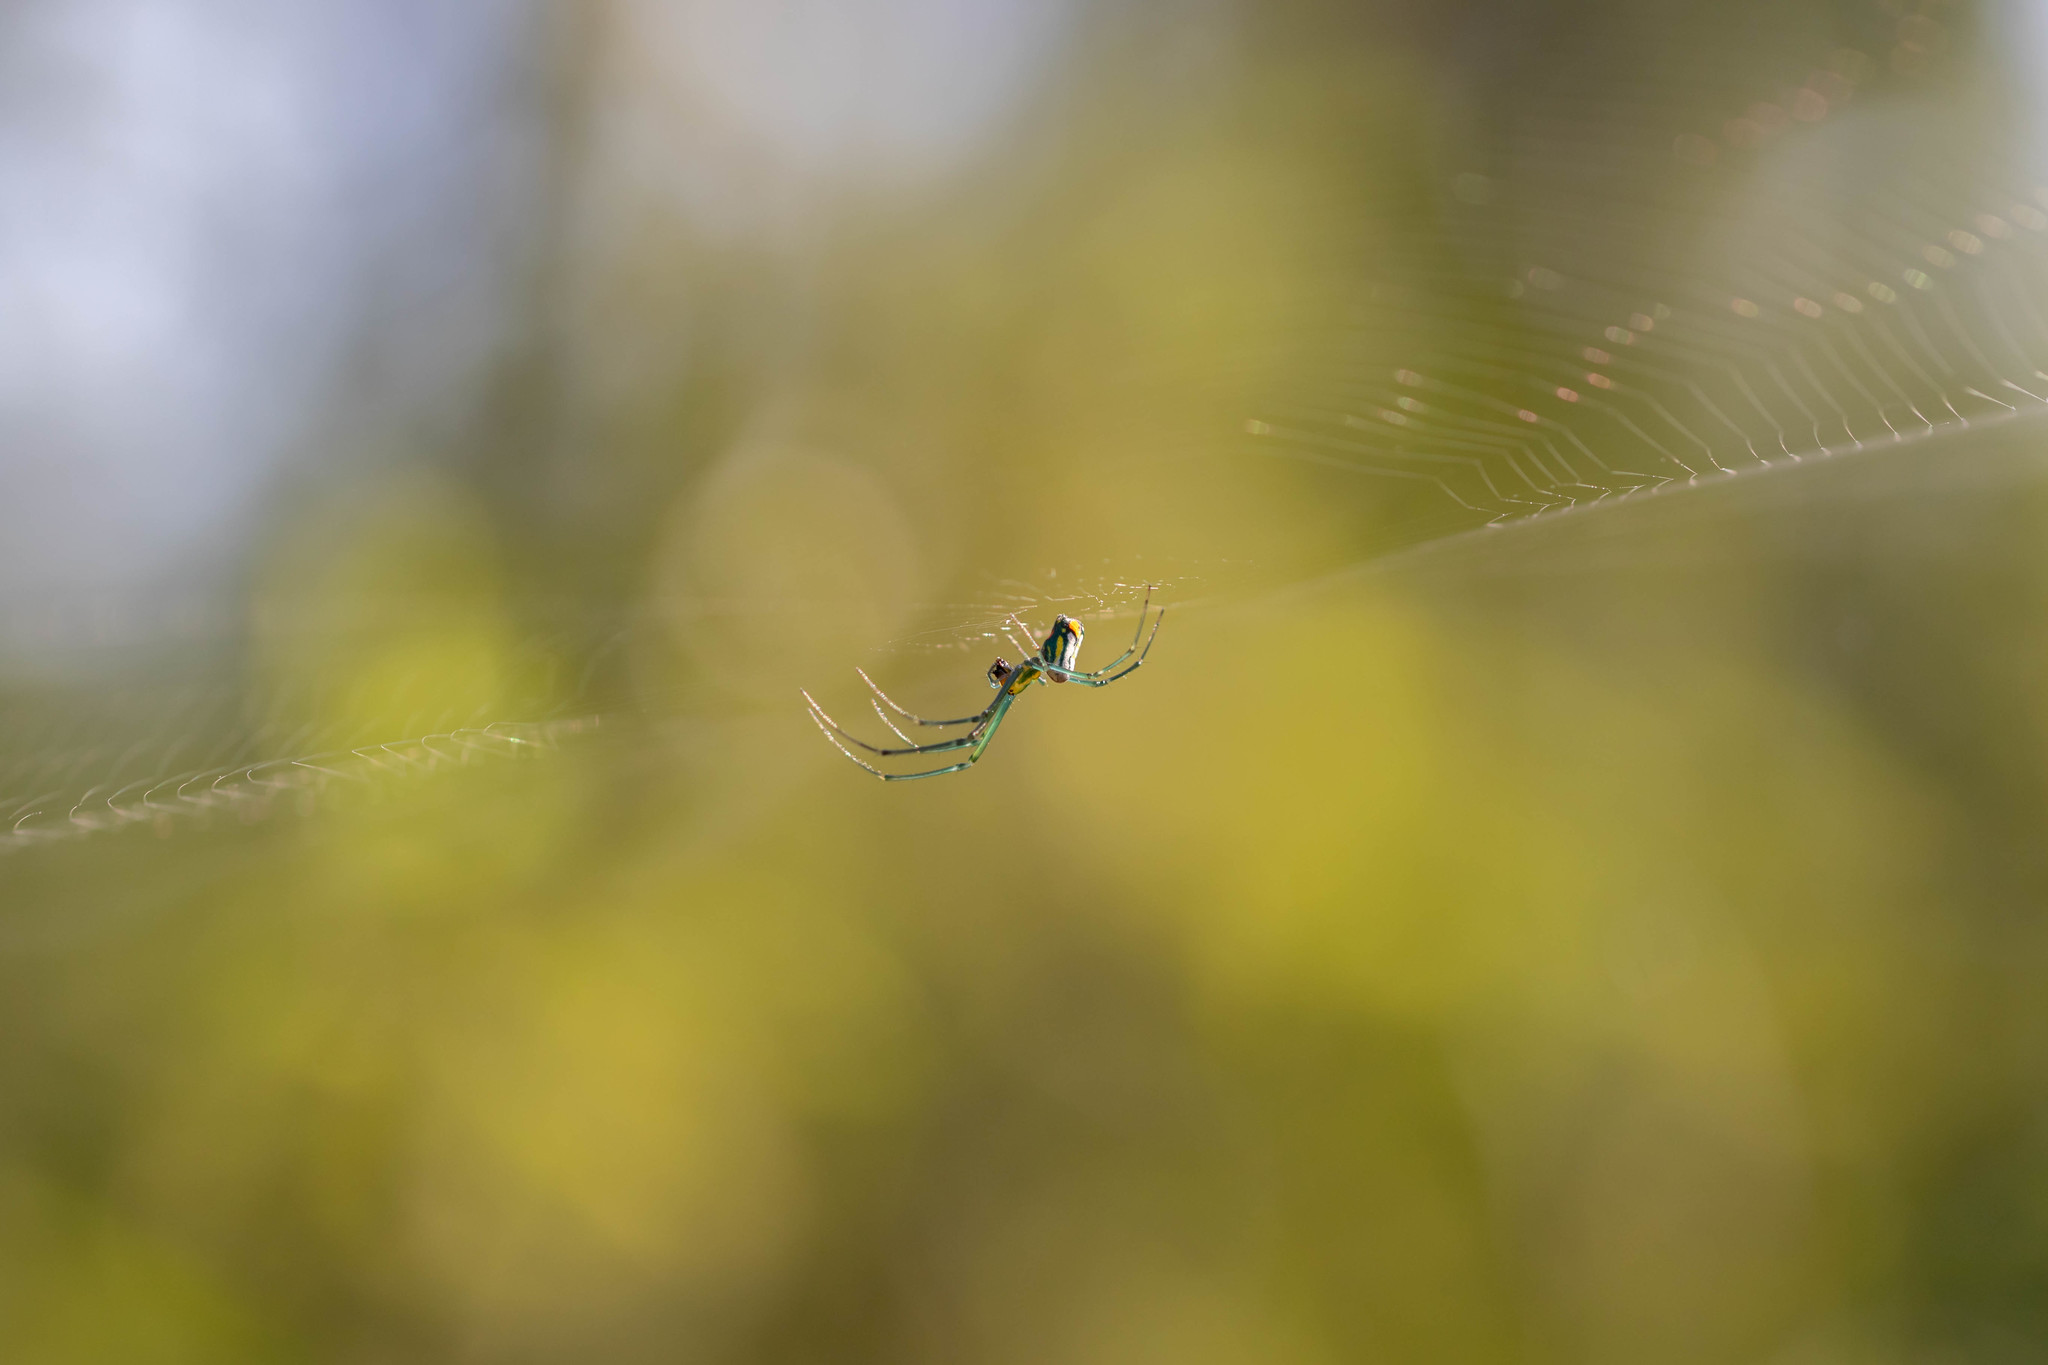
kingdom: Animalia
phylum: Arthropoda
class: Arachnida
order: Araneae
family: Tetragnathidae
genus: Leucauge
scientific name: Leucauge argyrobapta
